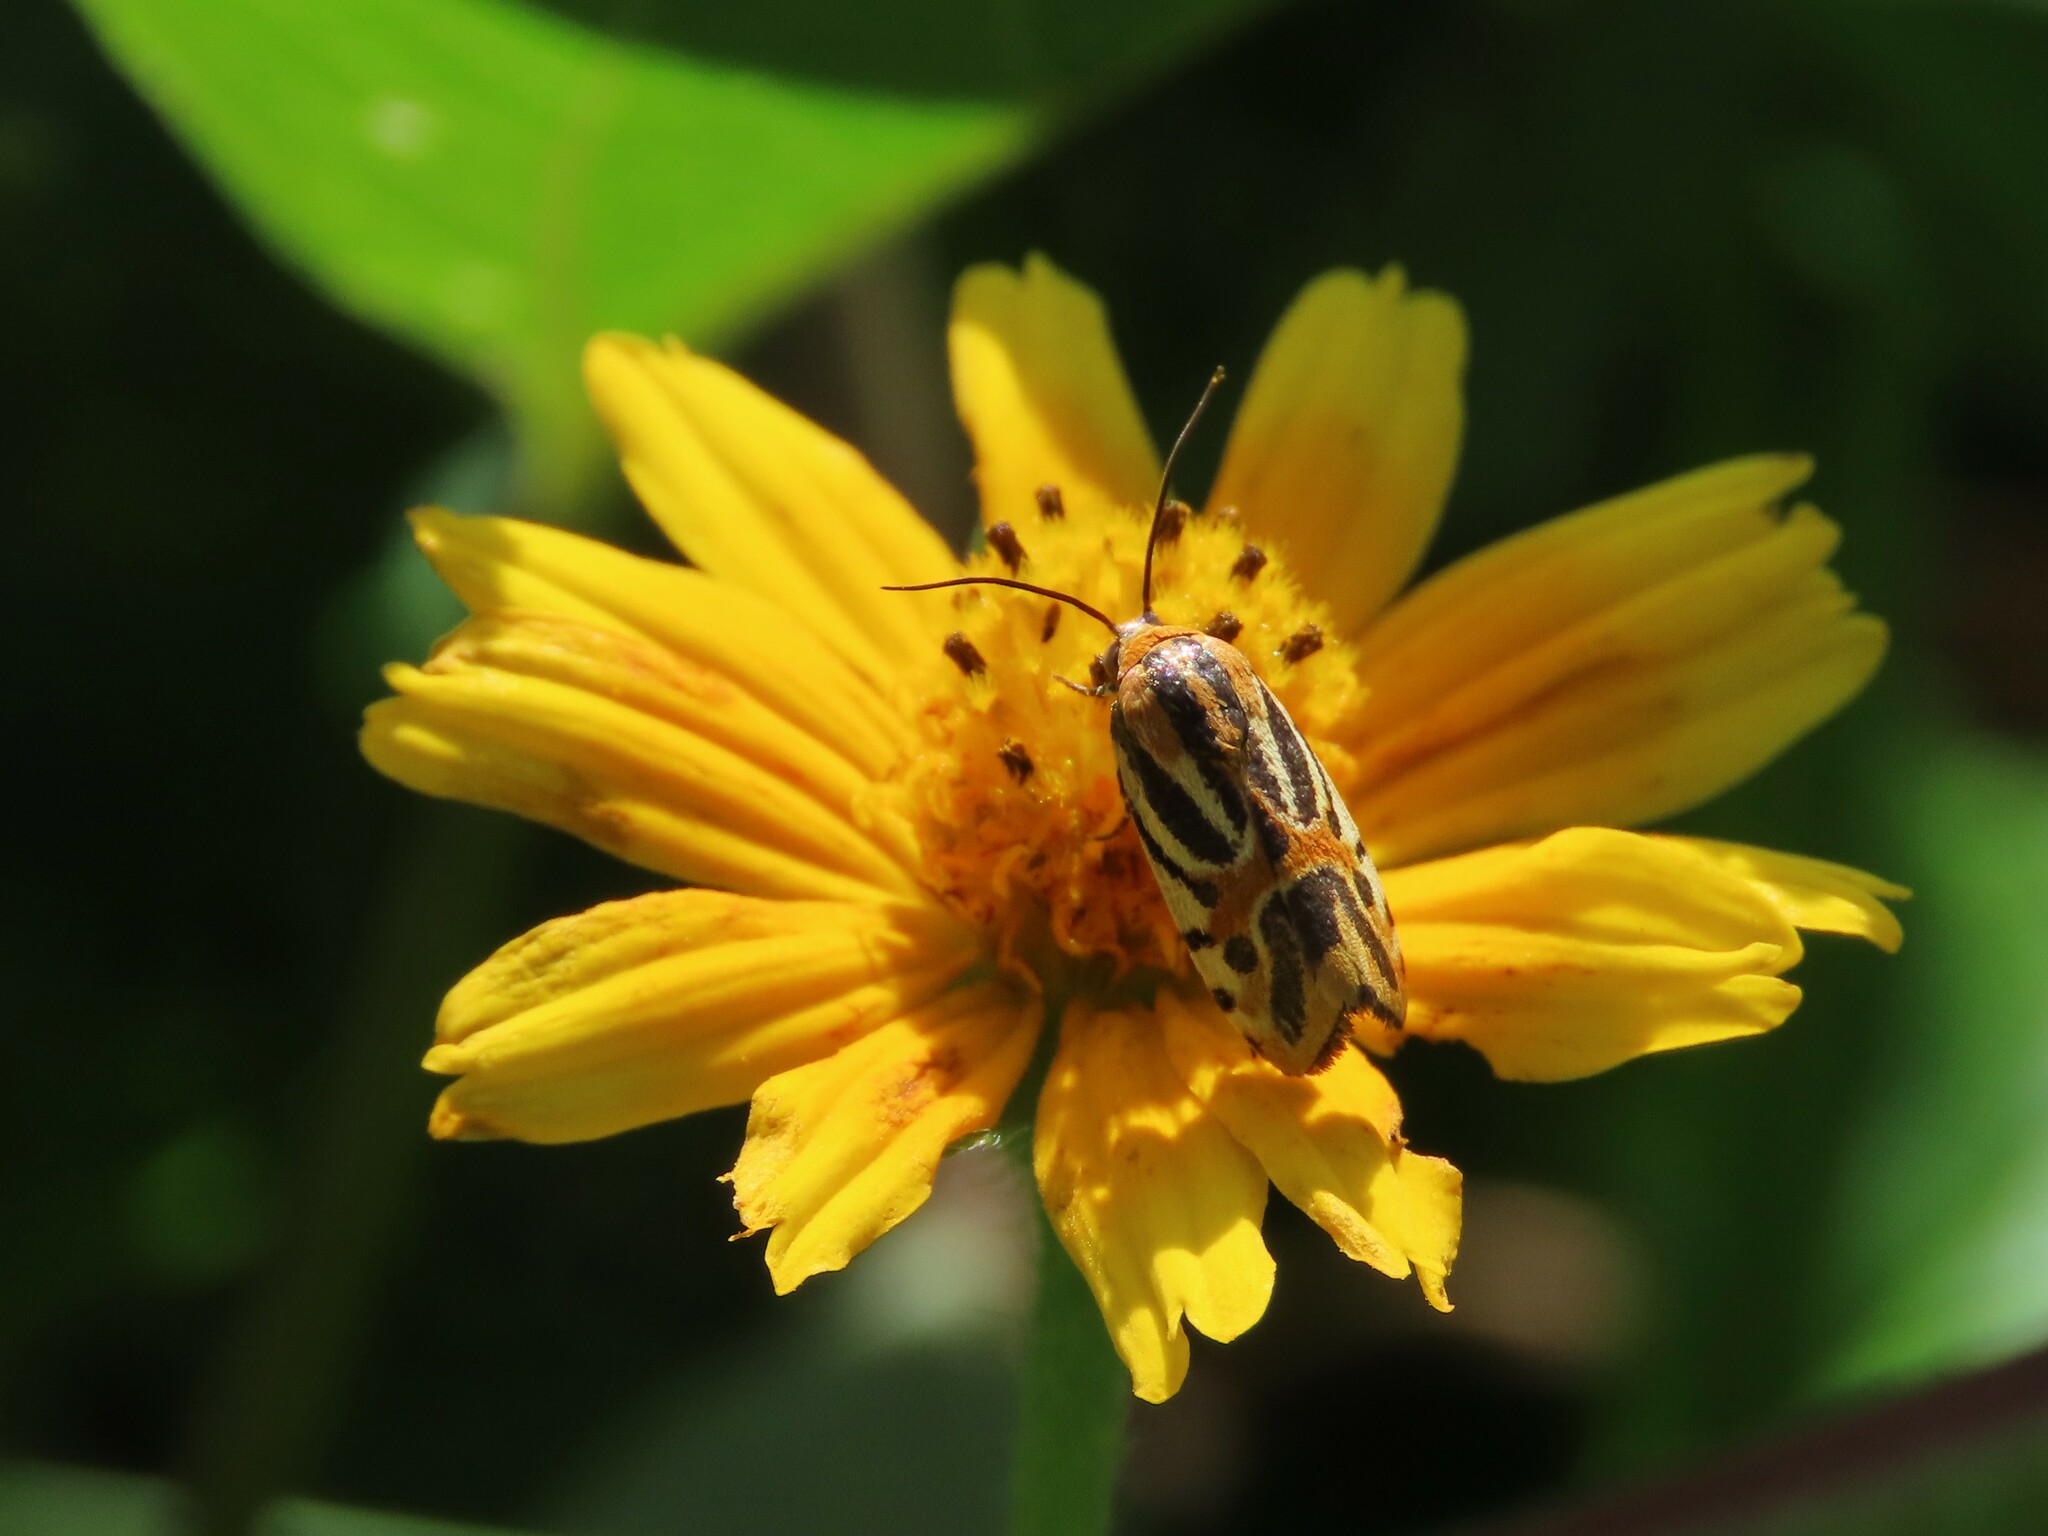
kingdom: Animalia
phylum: Arthropoda
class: Insecta
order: Lepidoptera
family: Noctuidae
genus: Acontia
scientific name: Acontia onagrus
